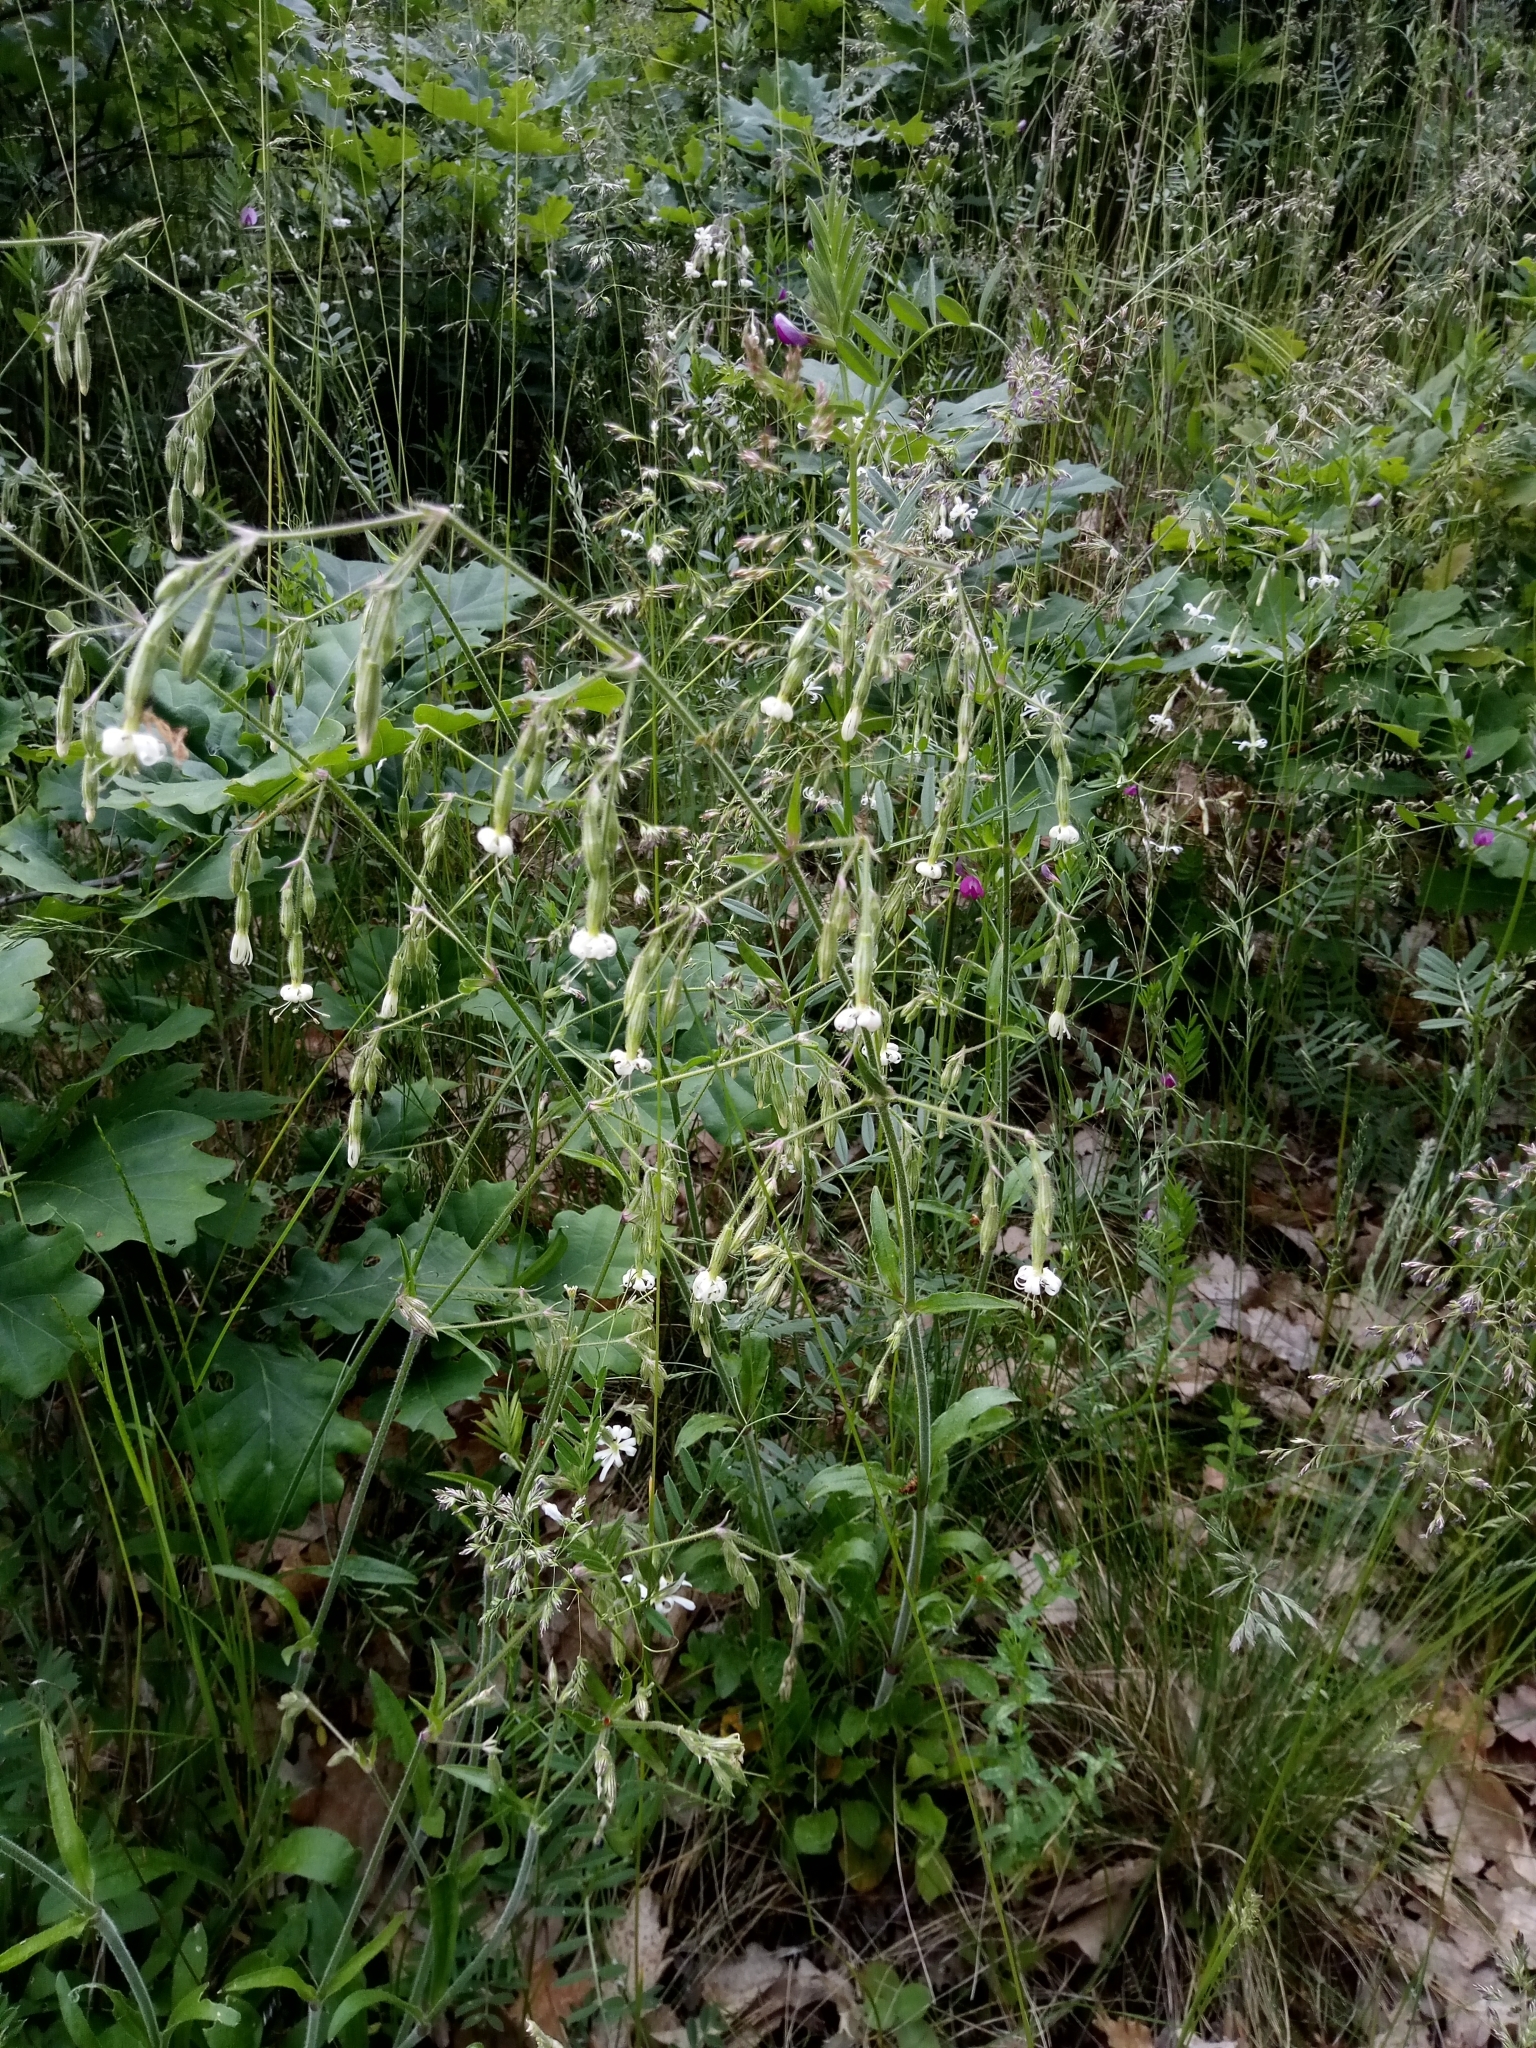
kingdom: Plantae
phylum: Tracheophyta
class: Magnoliopsida
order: Caryophyllales
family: Caryophyllaceae
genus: Silene
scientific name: Silene nutans
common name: Nottingham catchfly
